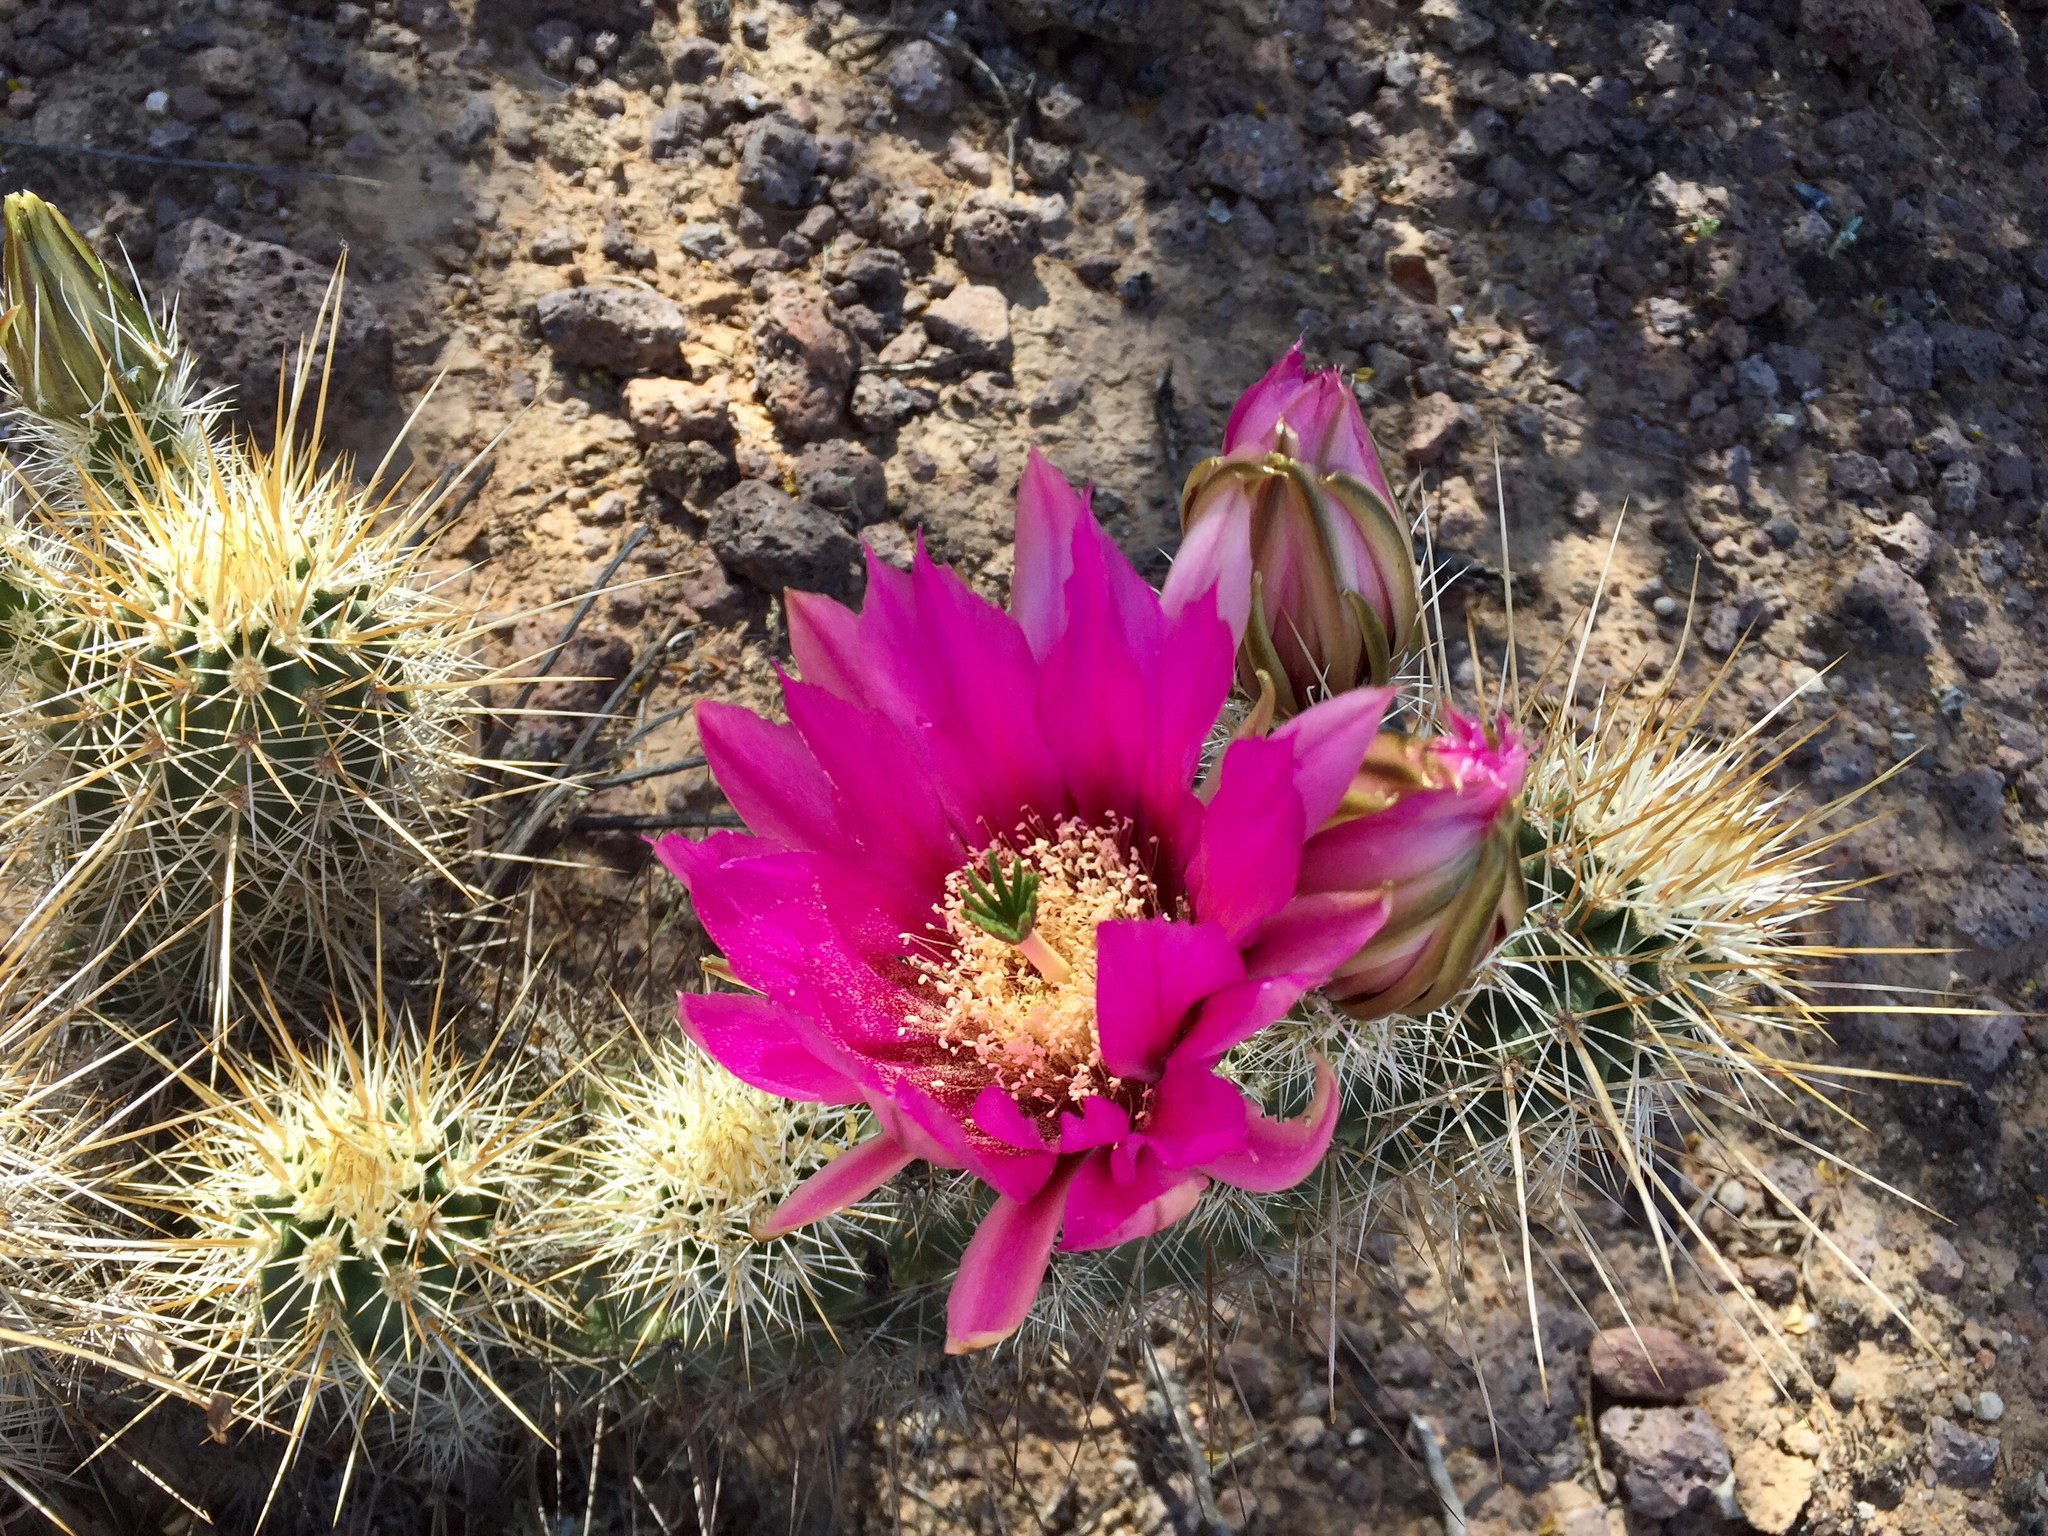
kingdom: Plantae
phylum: Tracheophyta
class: Magnoliopsida
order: Caryophyllales
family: Cactaceae
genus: Echinocereus
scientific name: Echinocereus engelmannii
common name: Engelmann's hedgehog cactus
